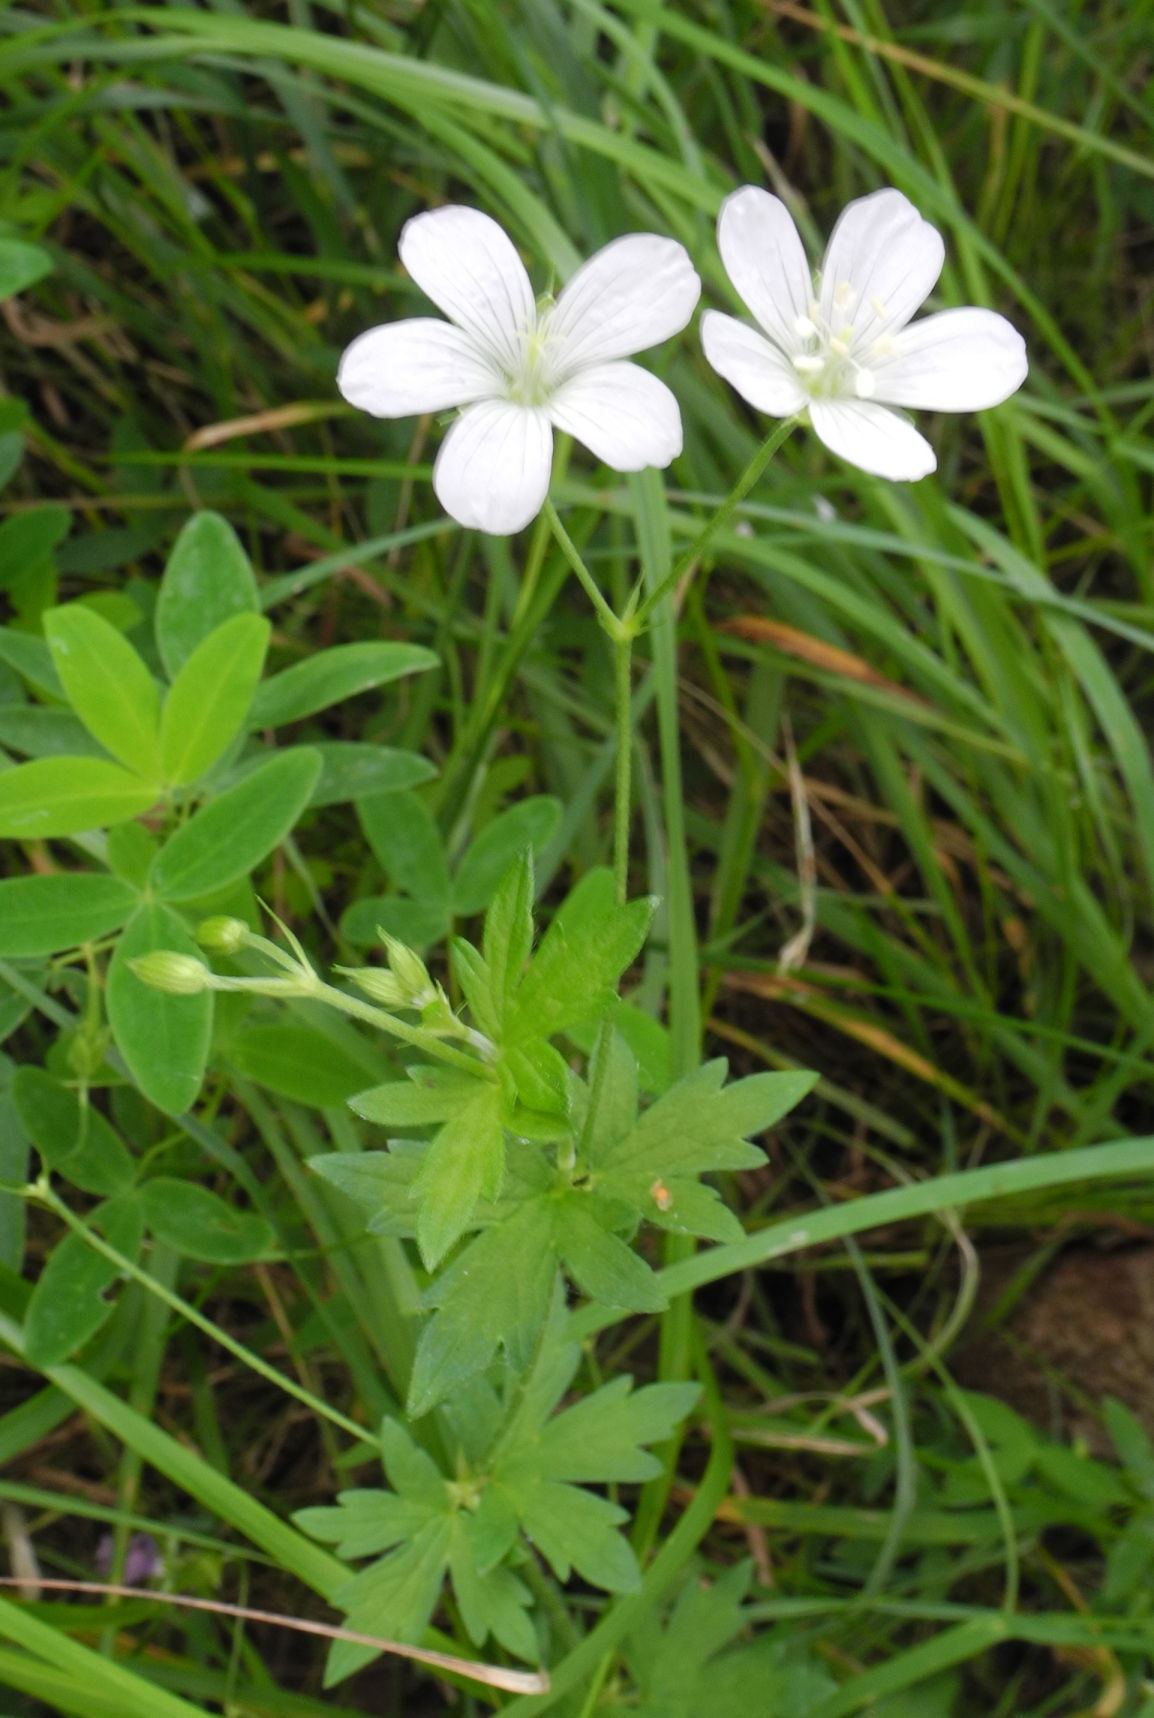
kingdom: Plantae
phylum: Tracheophyta
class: Magnoliopsida
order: Geraniales
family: Geraniaceae
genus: Geranium
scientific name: Geranium palustre
